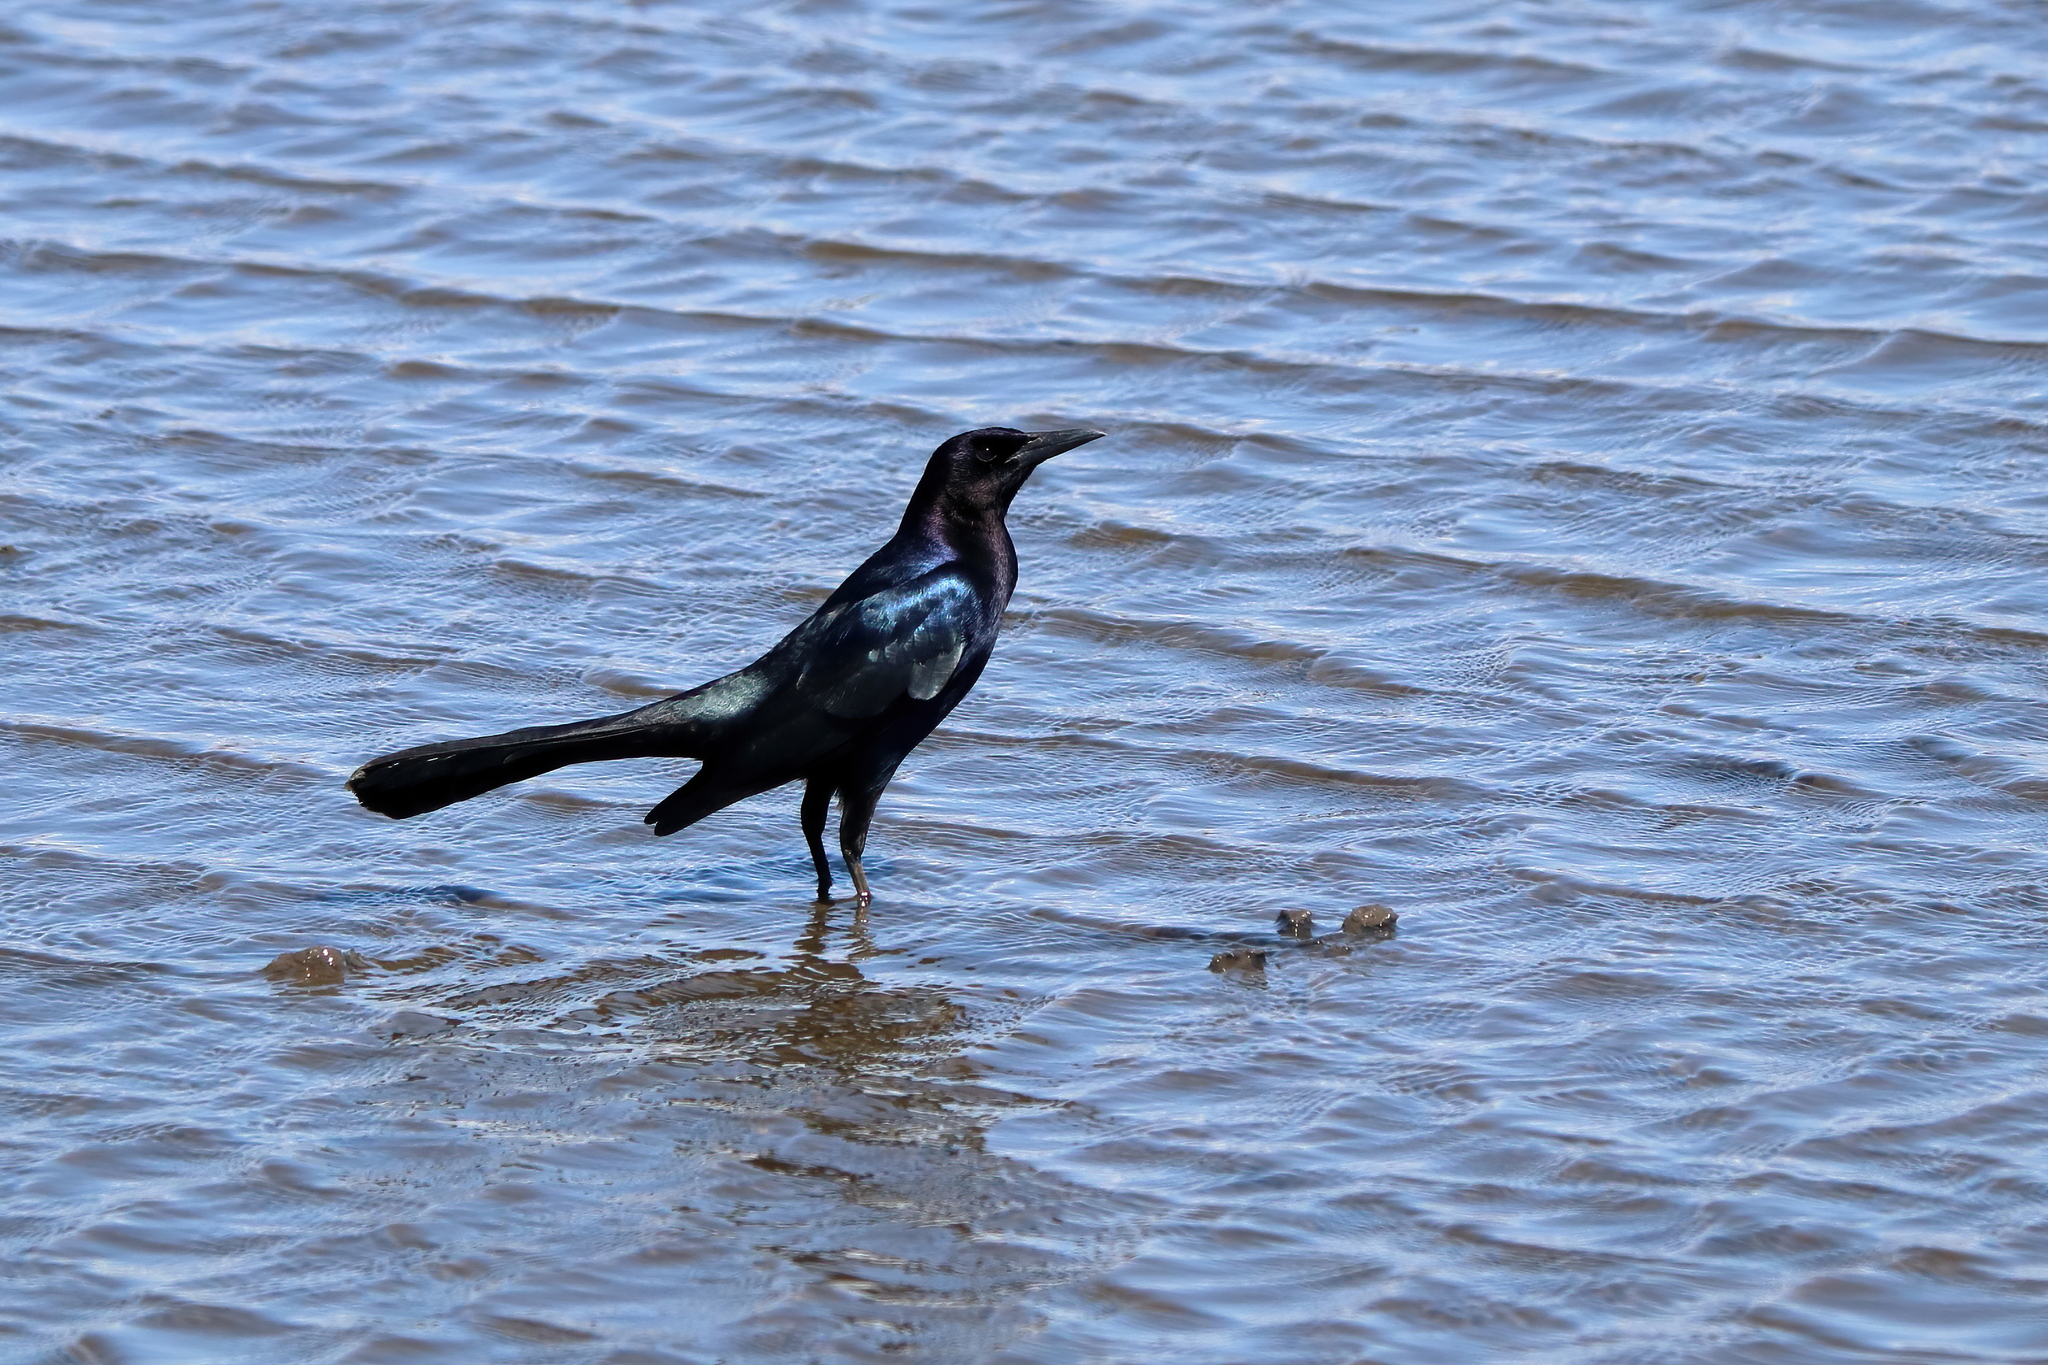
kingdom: Animalia
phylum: Chordata
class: Aves
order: Passeriformes
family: Icteridae
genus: Quiscalus
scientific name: Quiscalus major
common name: Boat-tailed grackle
